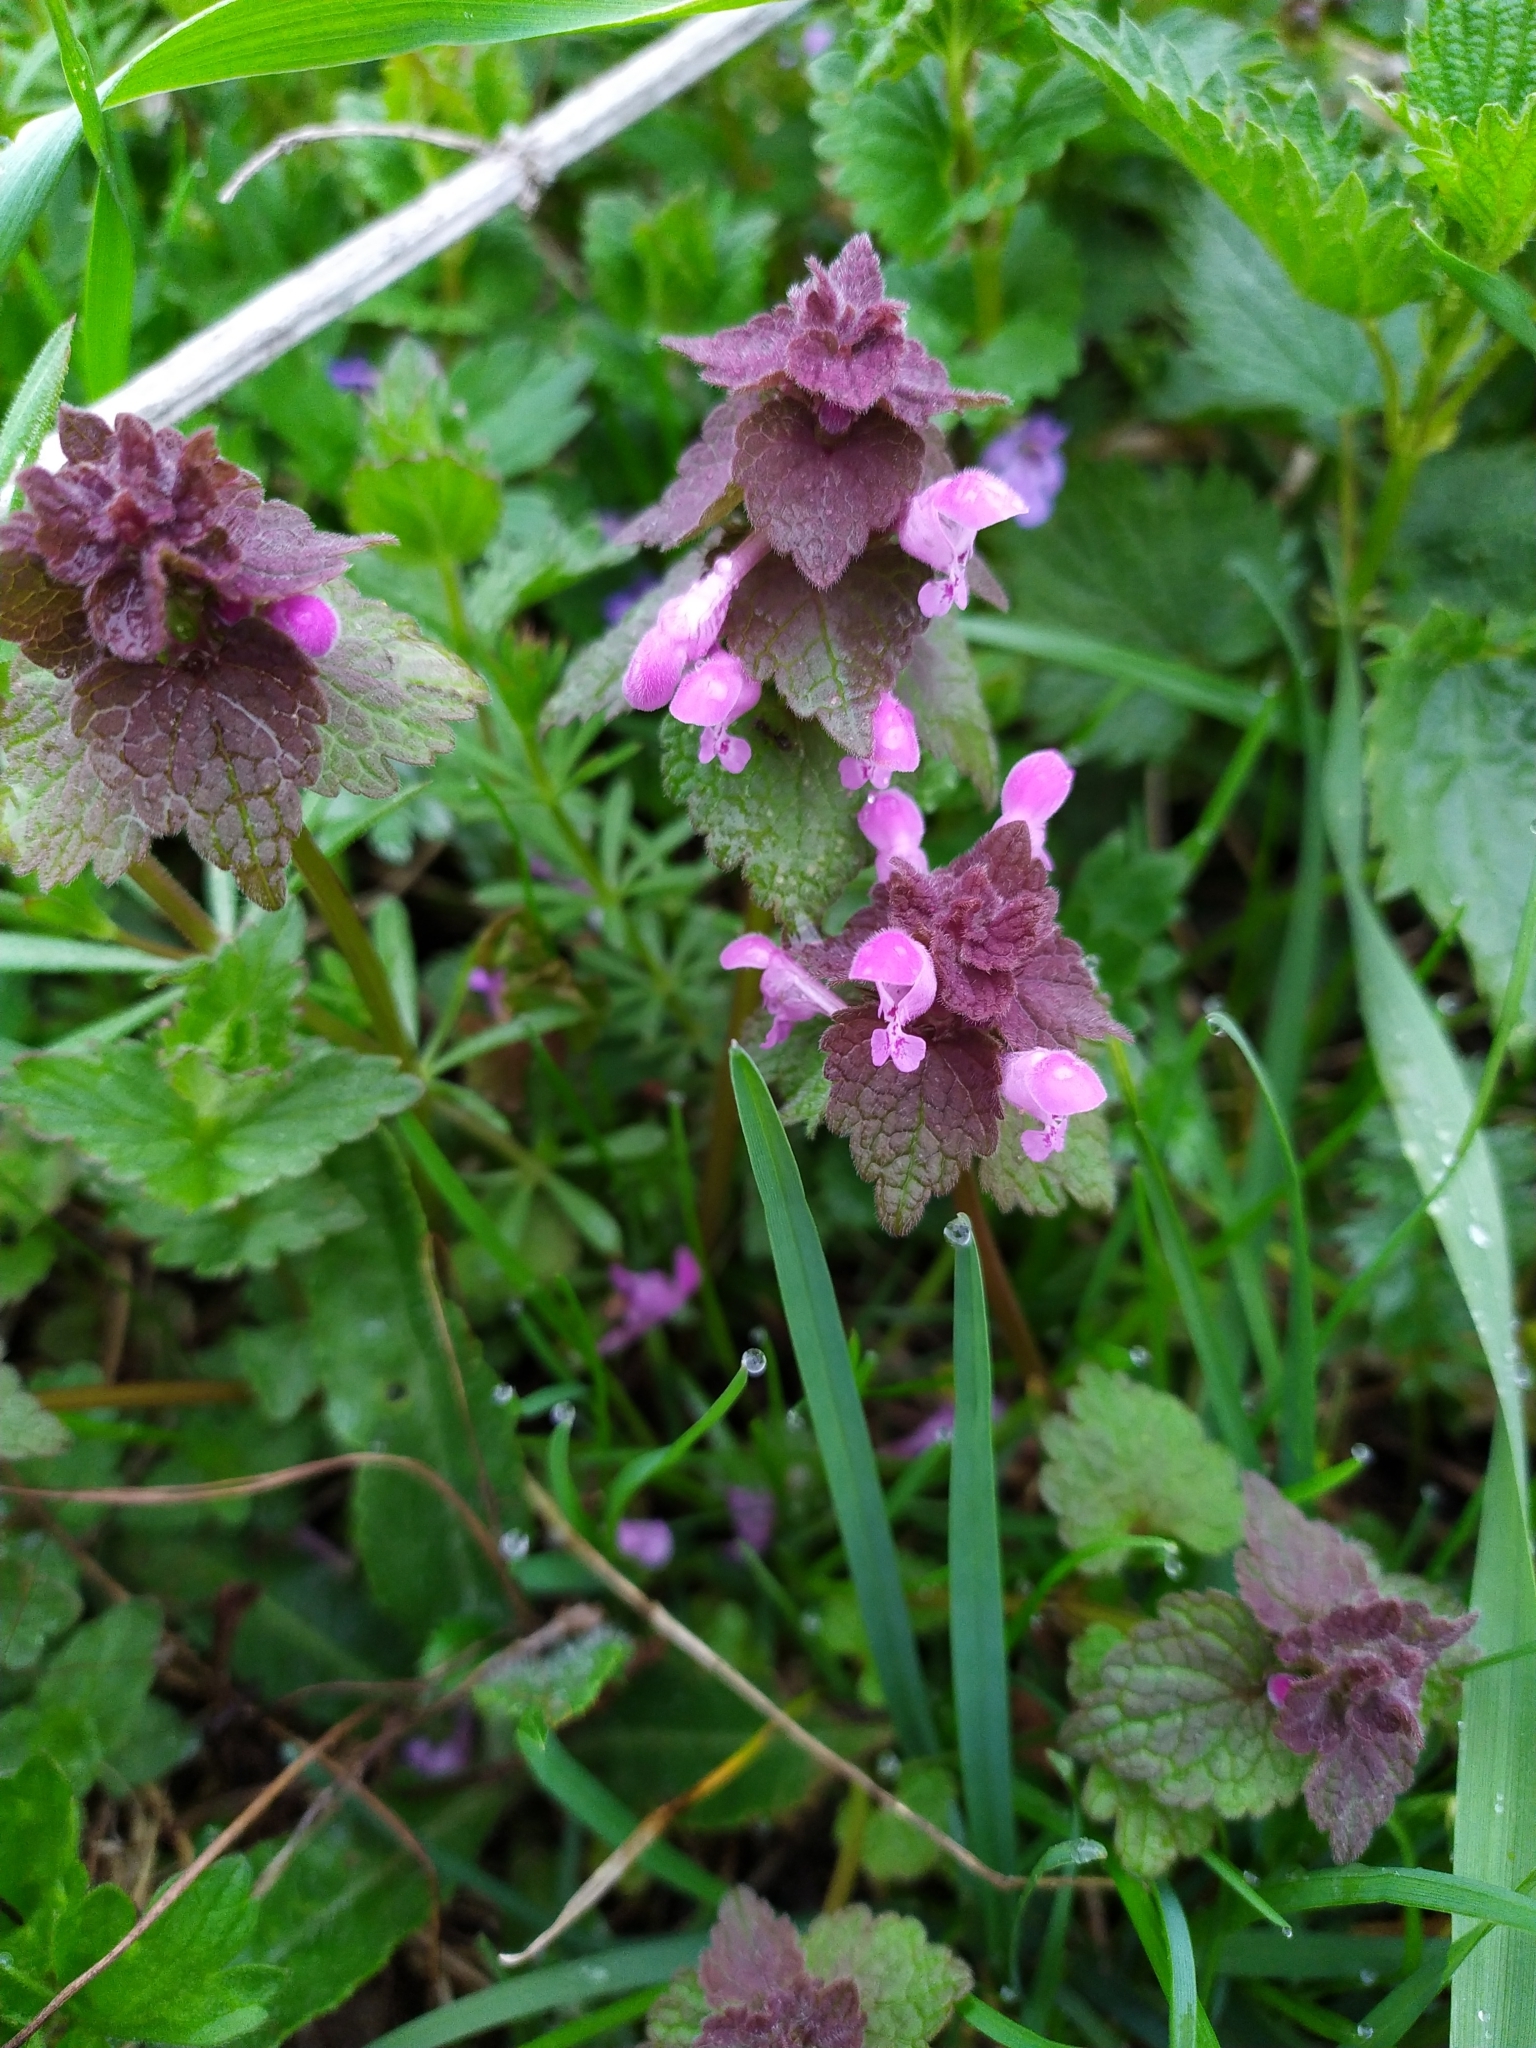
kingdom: Plantae
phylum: Tracheophyta
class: Magnoliopsida
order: Lamiales
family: Lamiaceae
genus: Lamium
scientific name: Lamium purpureum
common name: Red dead-nettle
